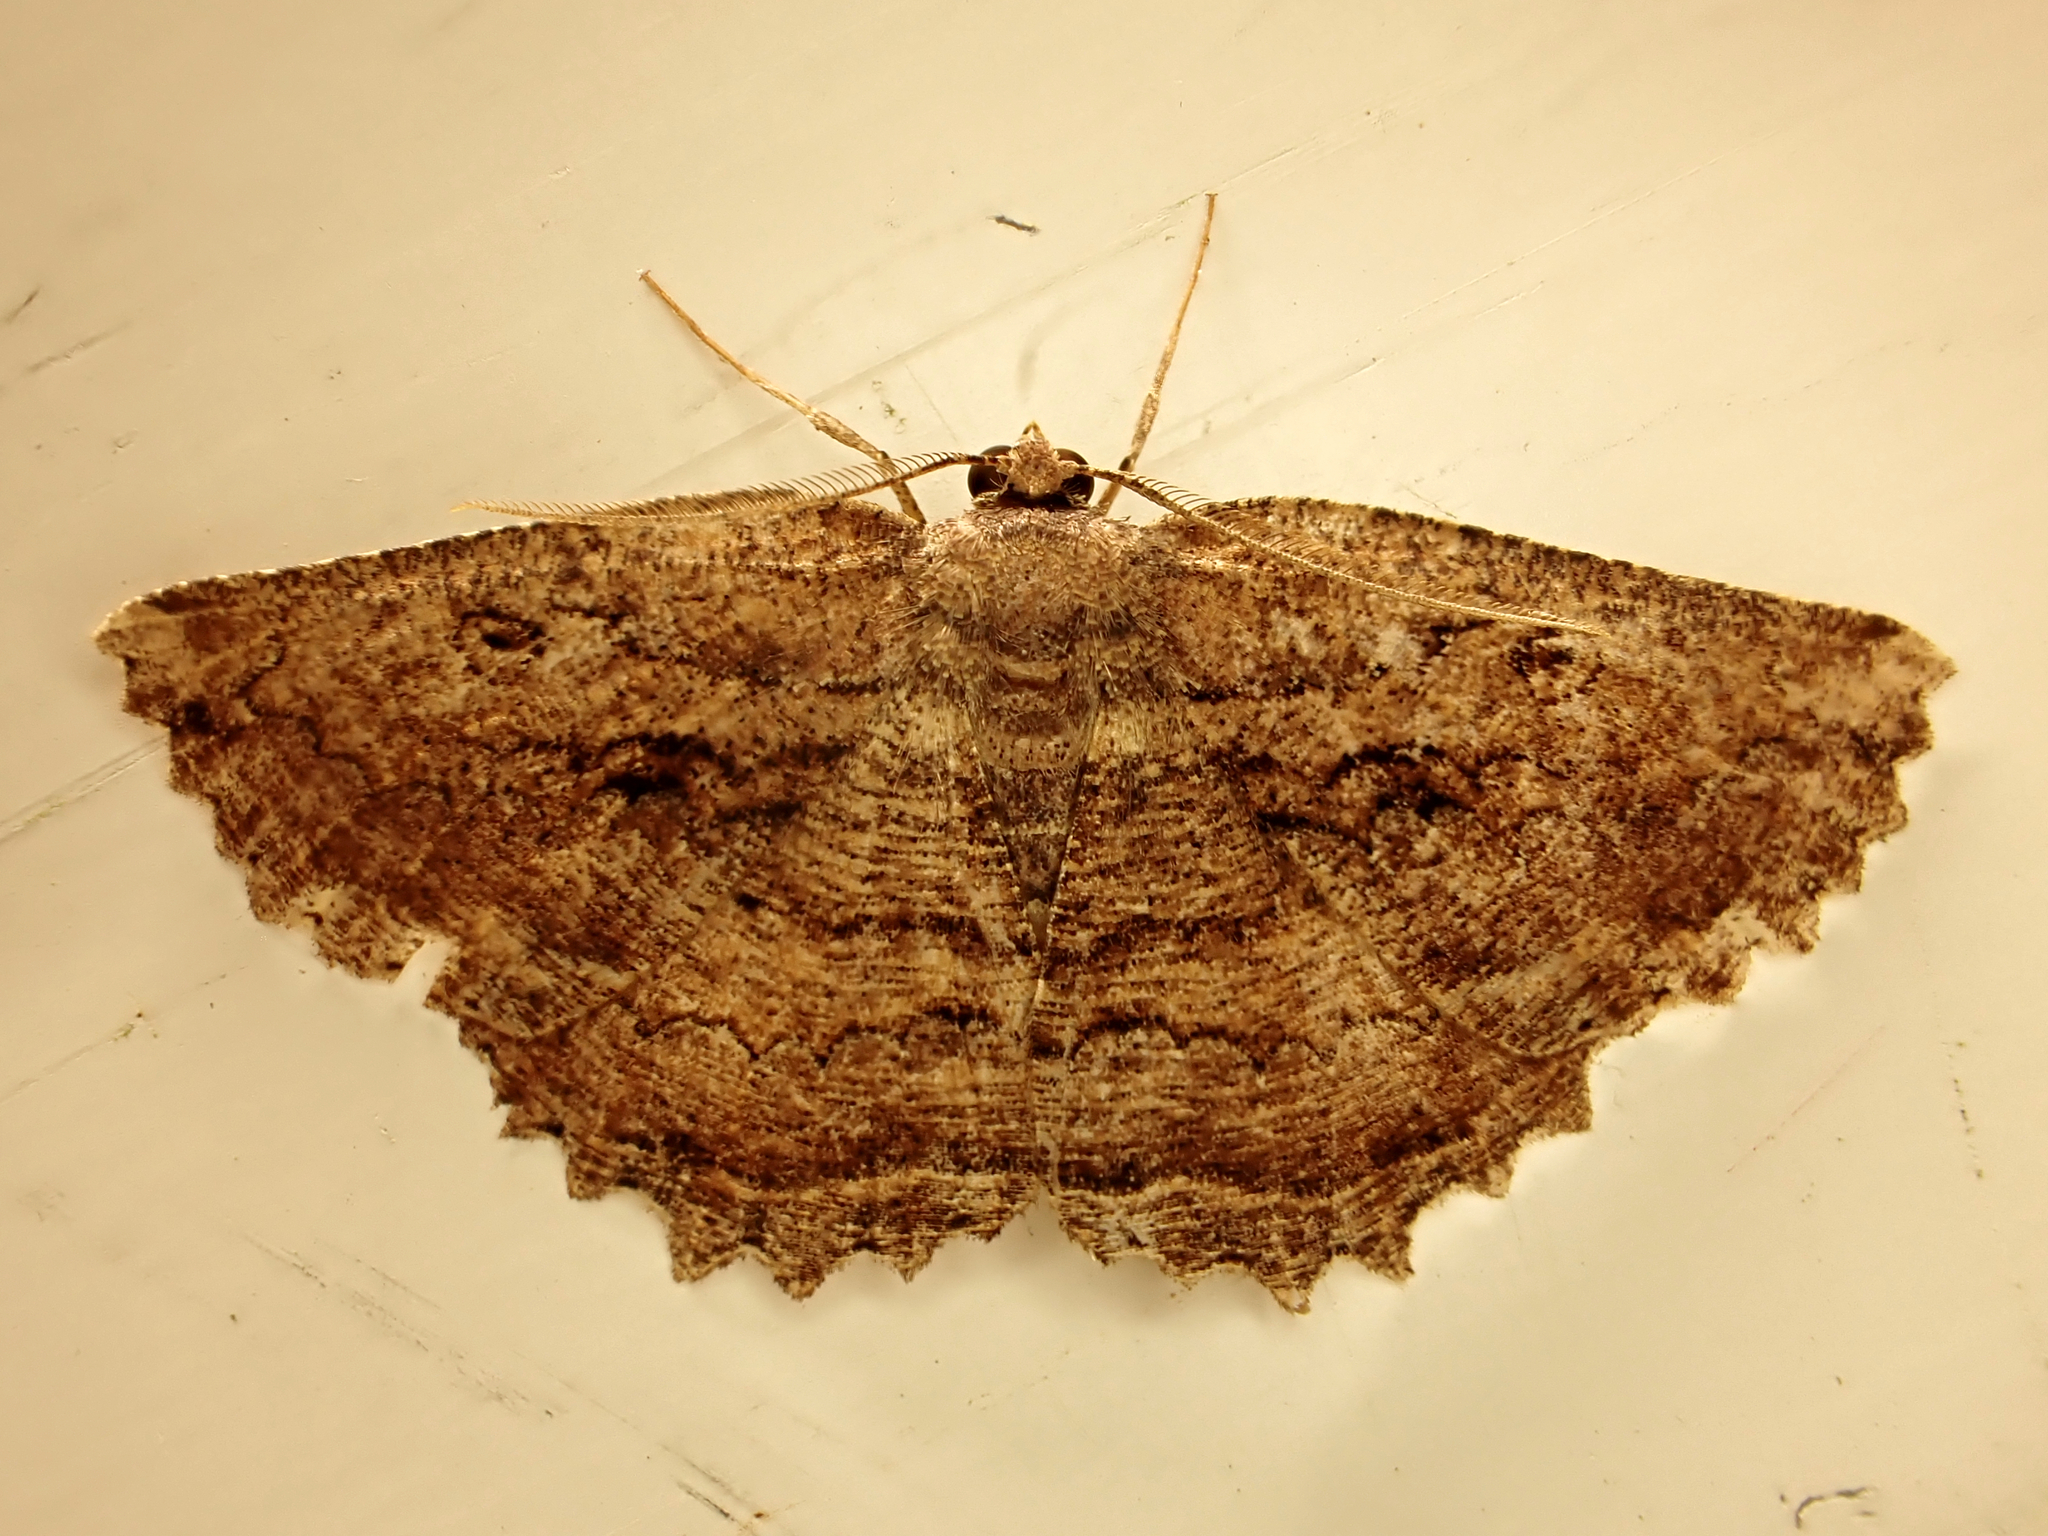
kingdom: Animalia
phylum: Arthropoda
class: Insecta
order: Lepidoptera
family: Geometridae
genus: Gellonia
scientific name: Gellonia pannularia
